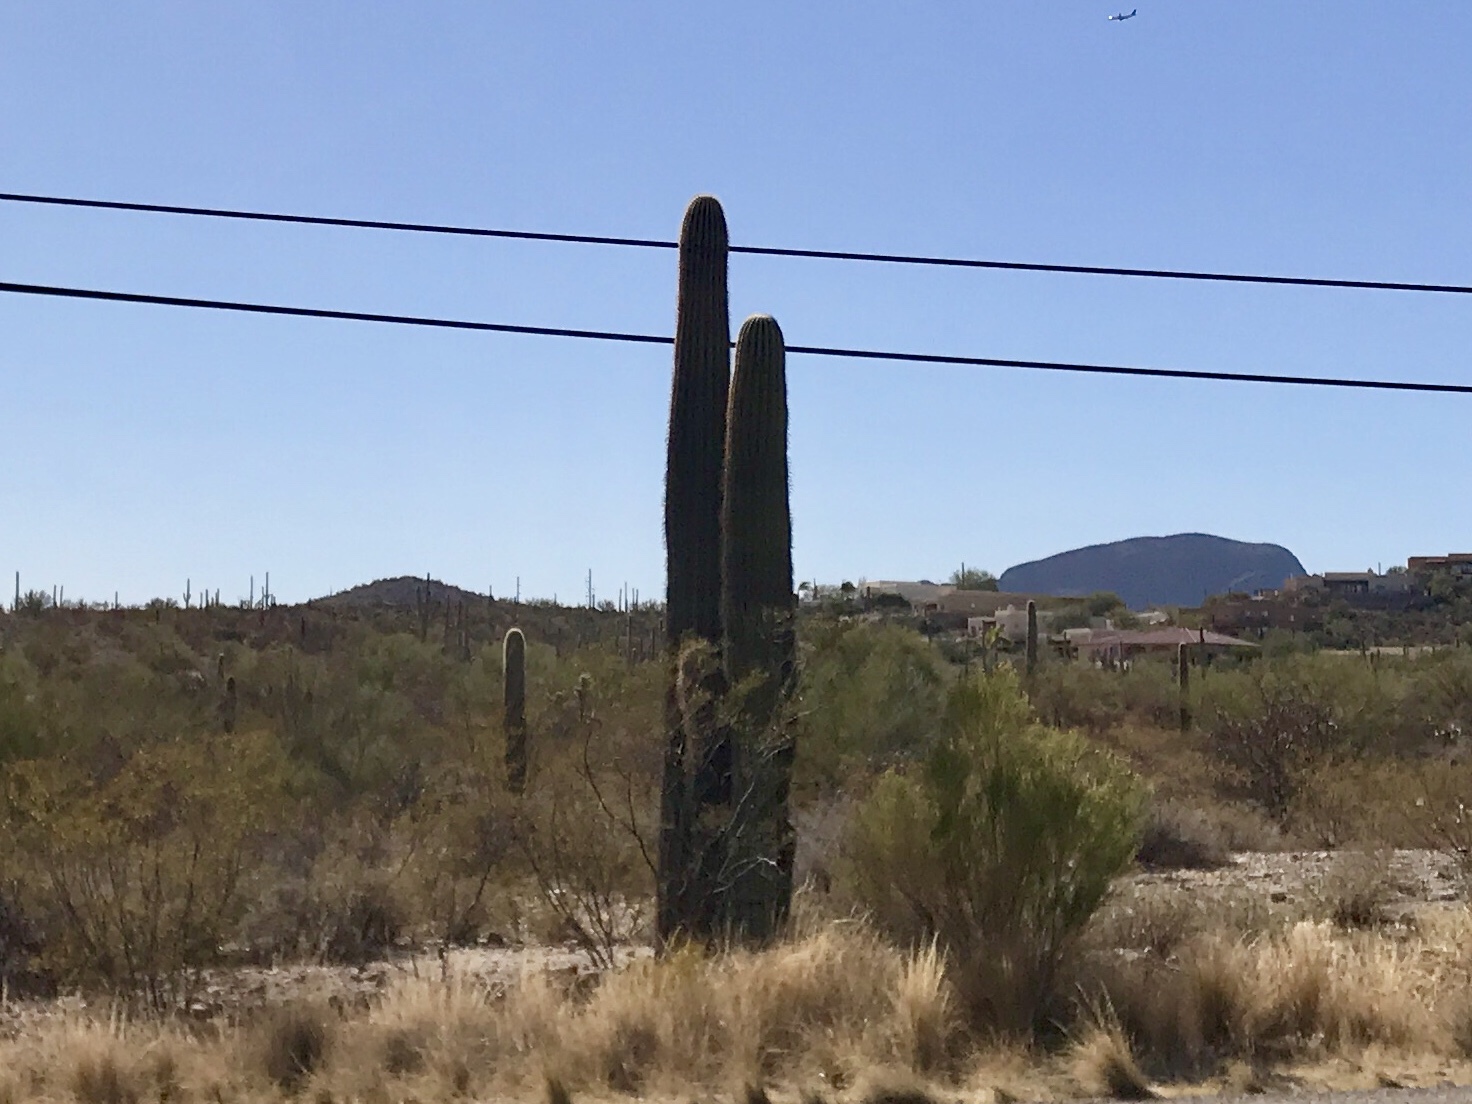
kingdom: Plantae
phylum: Tracheophyta
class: Magnoliopsida
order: Caryophyllales
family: Cactaceae
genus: Carnegiea
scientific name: Carnegiea gigantea
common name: Saguaro
